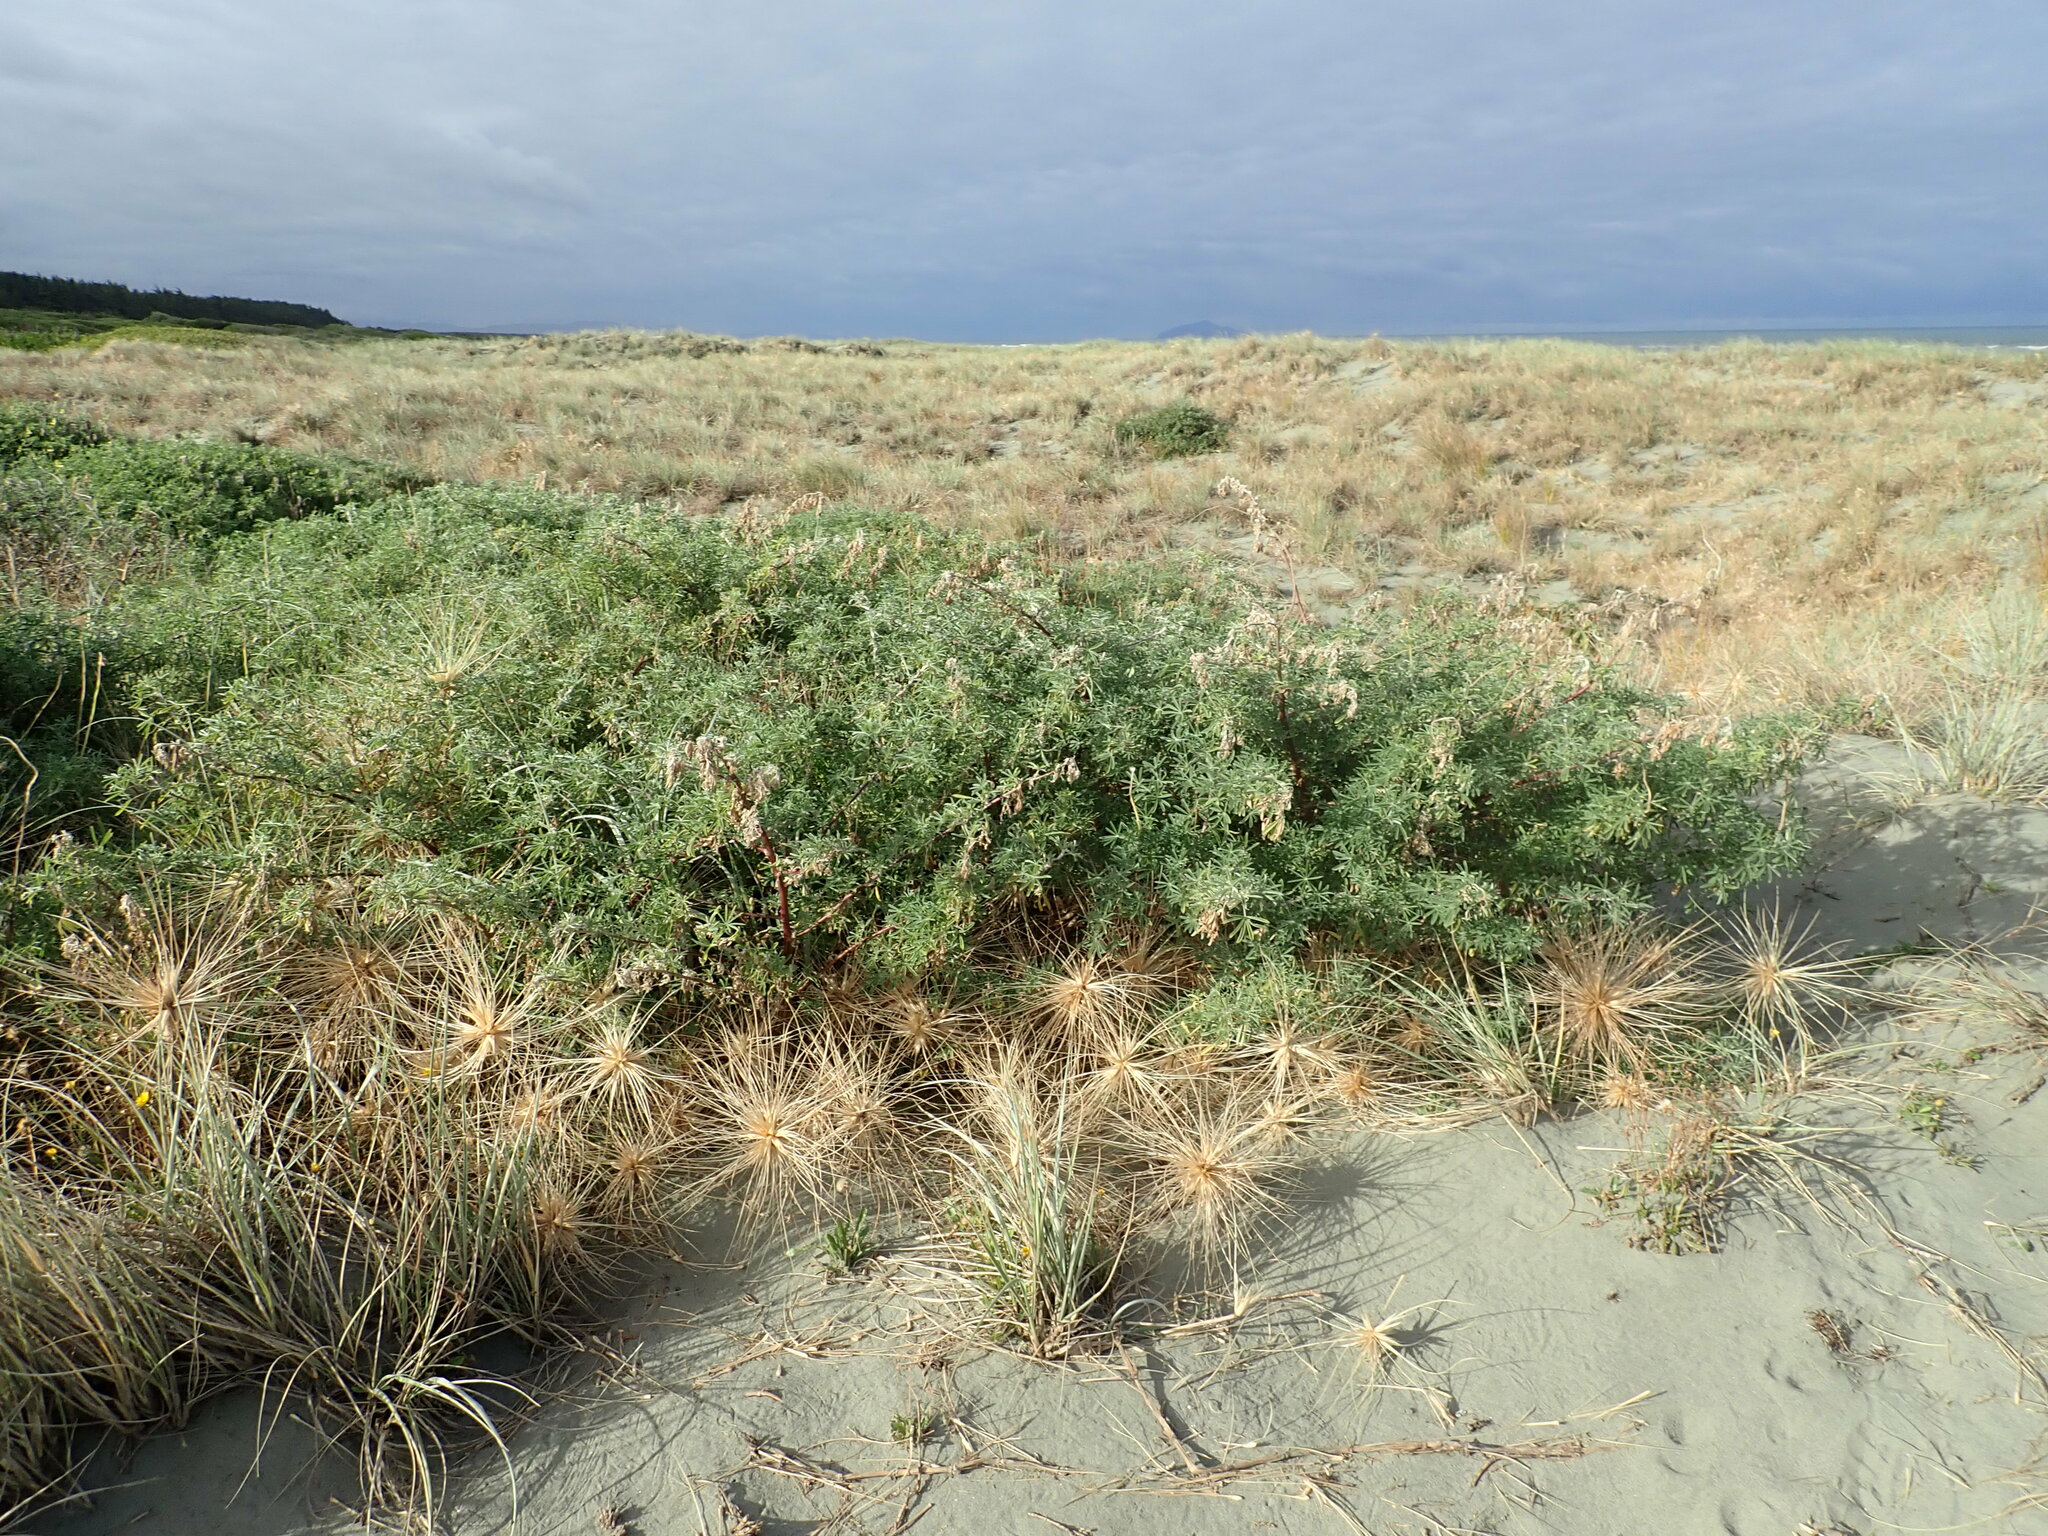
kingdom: Plantae
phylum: Tracheophyta
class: Magnoliopsida
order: Fabales
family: Fabaceae
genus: Lupinus
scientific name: Lupinus arboreus
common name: Yellow bush lupine
